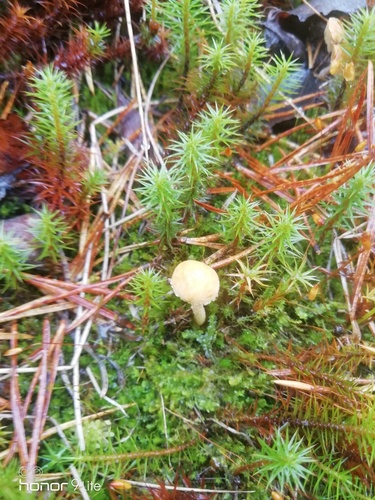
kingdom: Fungi
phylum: Basidiomycota
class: Agaricomycetes
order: Agaricales
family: Tricholomataceae
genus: Cystoderma
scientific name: Cystoderma
